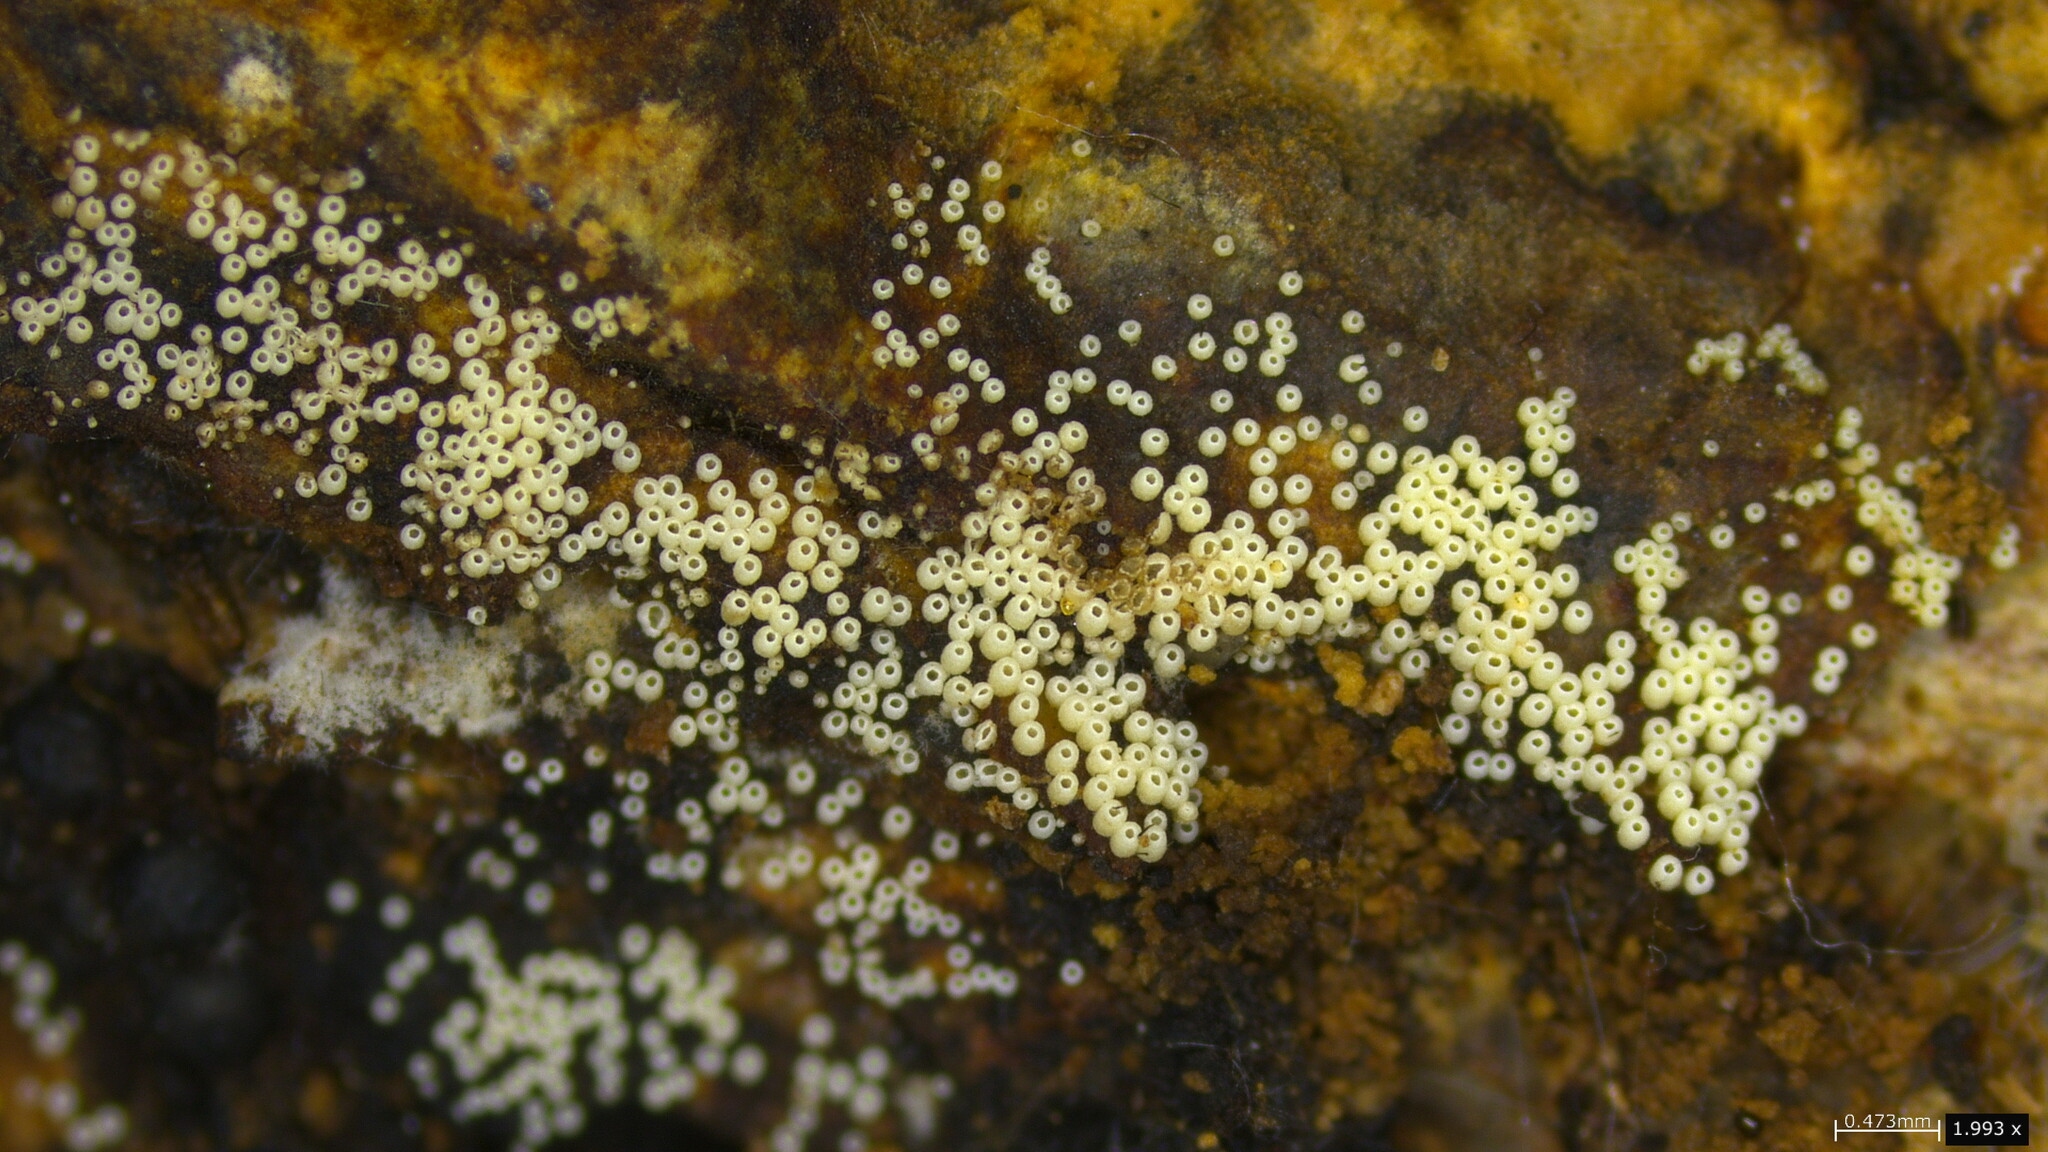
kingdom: Fungi
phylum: Basidiomycota
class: Agaricomycetes
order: Agaricales
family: Marasmiaceae
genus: Henningsomyces
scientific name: Henningsomyces candidus
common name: White tubelet
